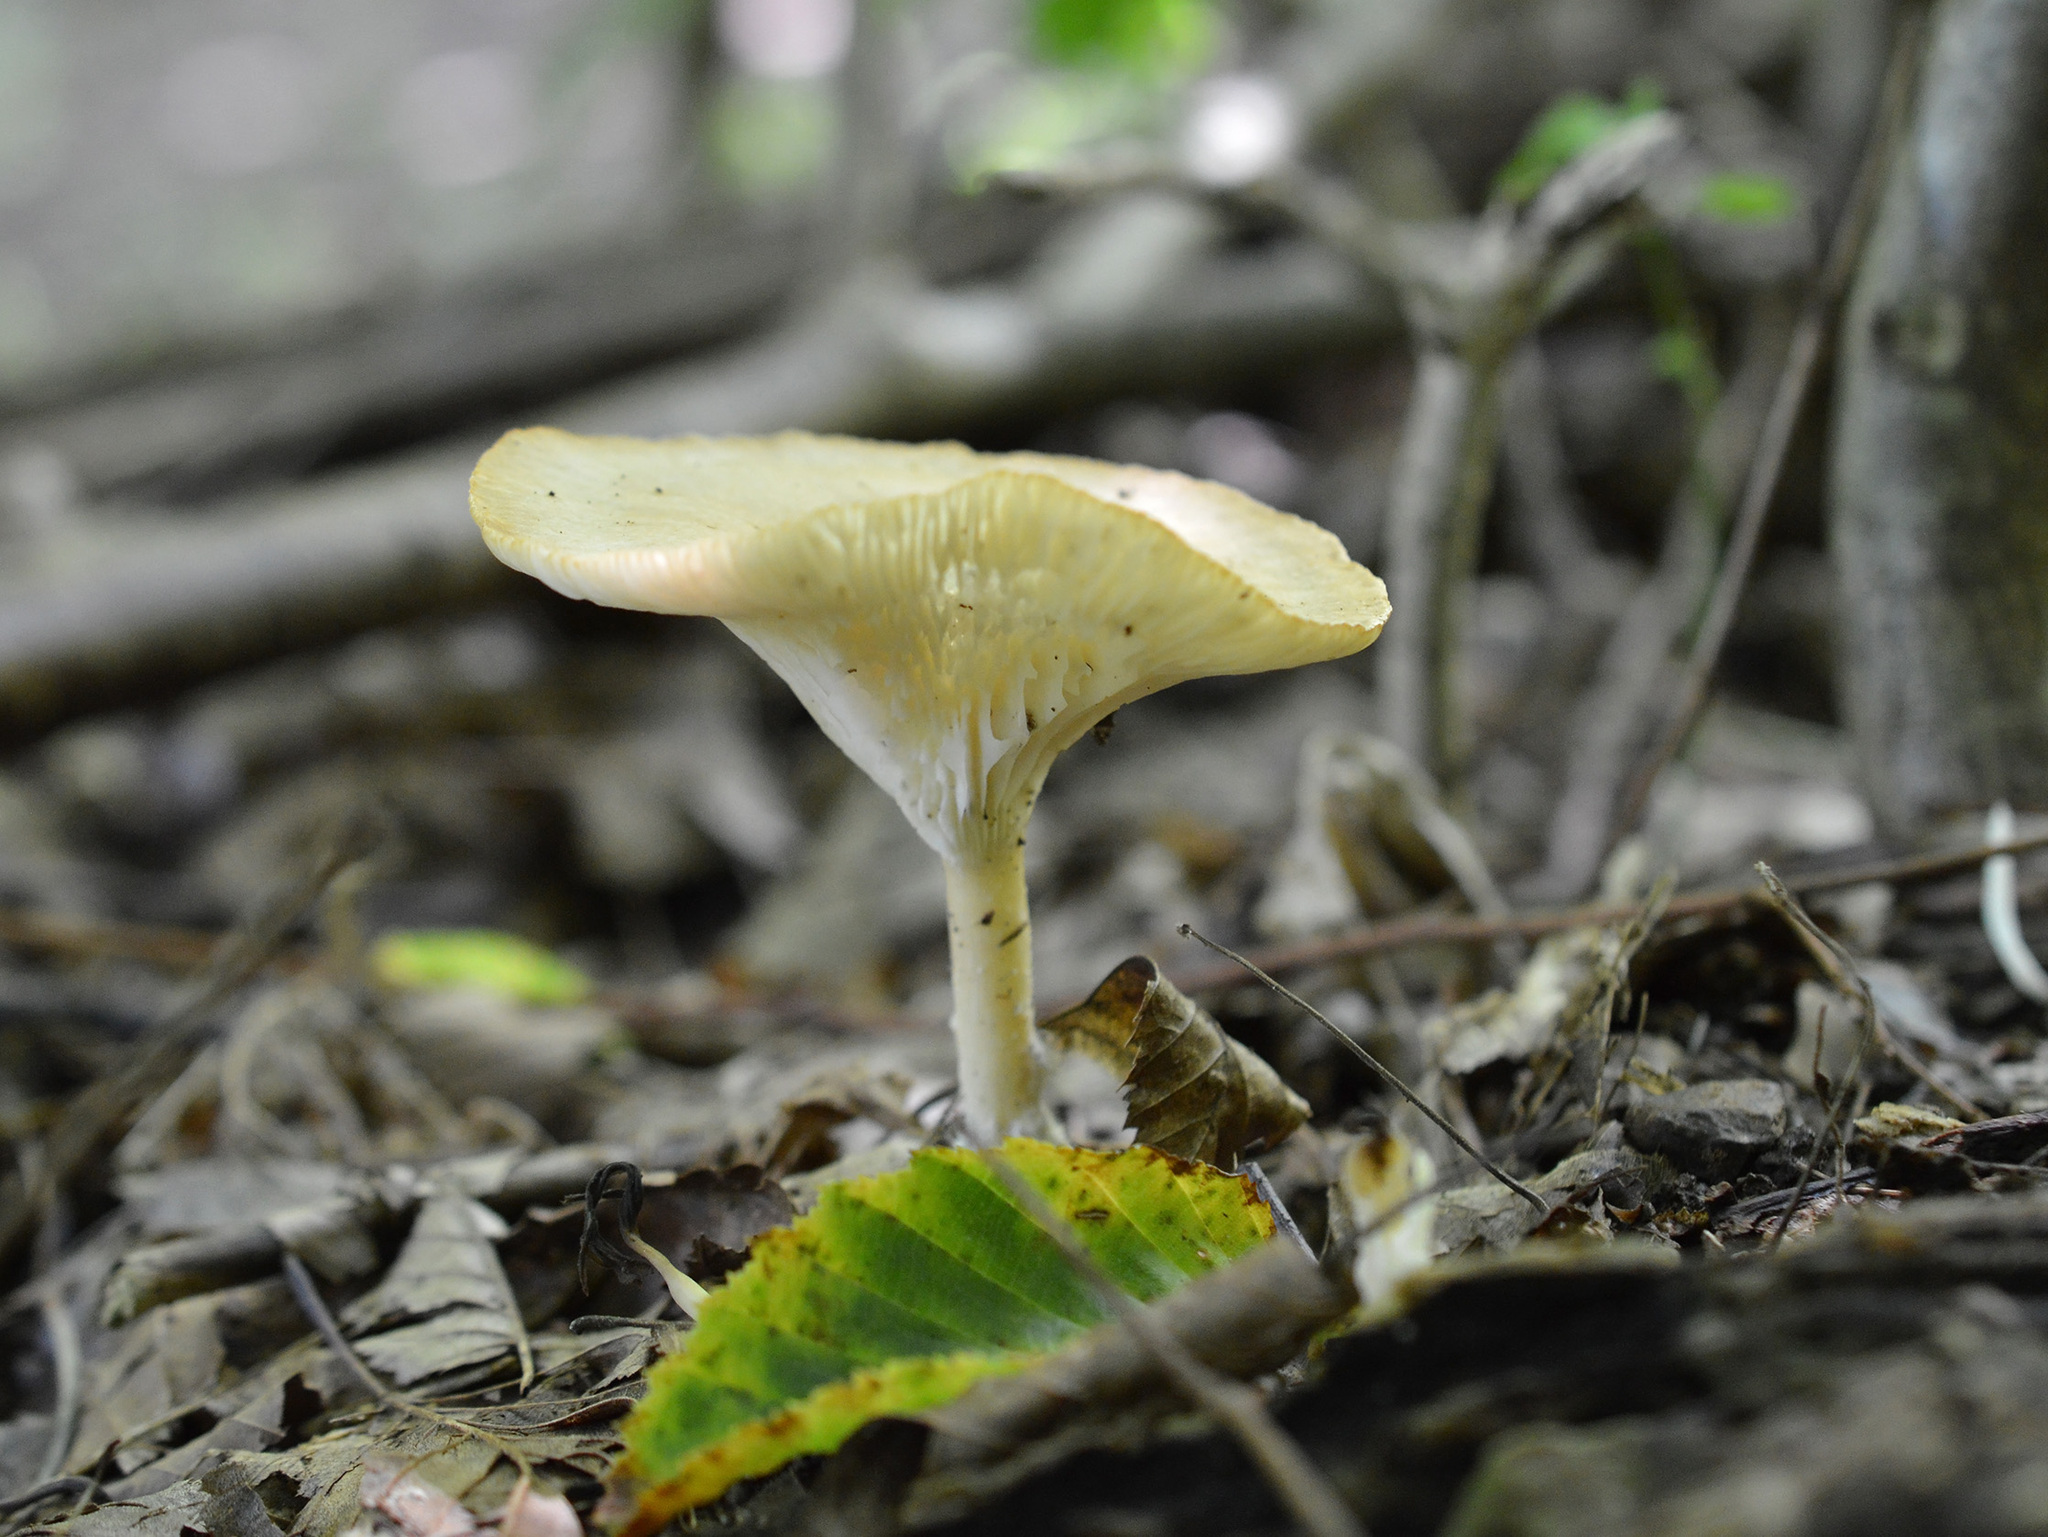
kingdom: Fungi
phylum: Basidiomycota
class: Agaricomycetes
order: Agaricales
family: Tricholomataceae
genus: Infundibulicybe
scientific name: Infundibulicybe gibba
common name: Common funnel
